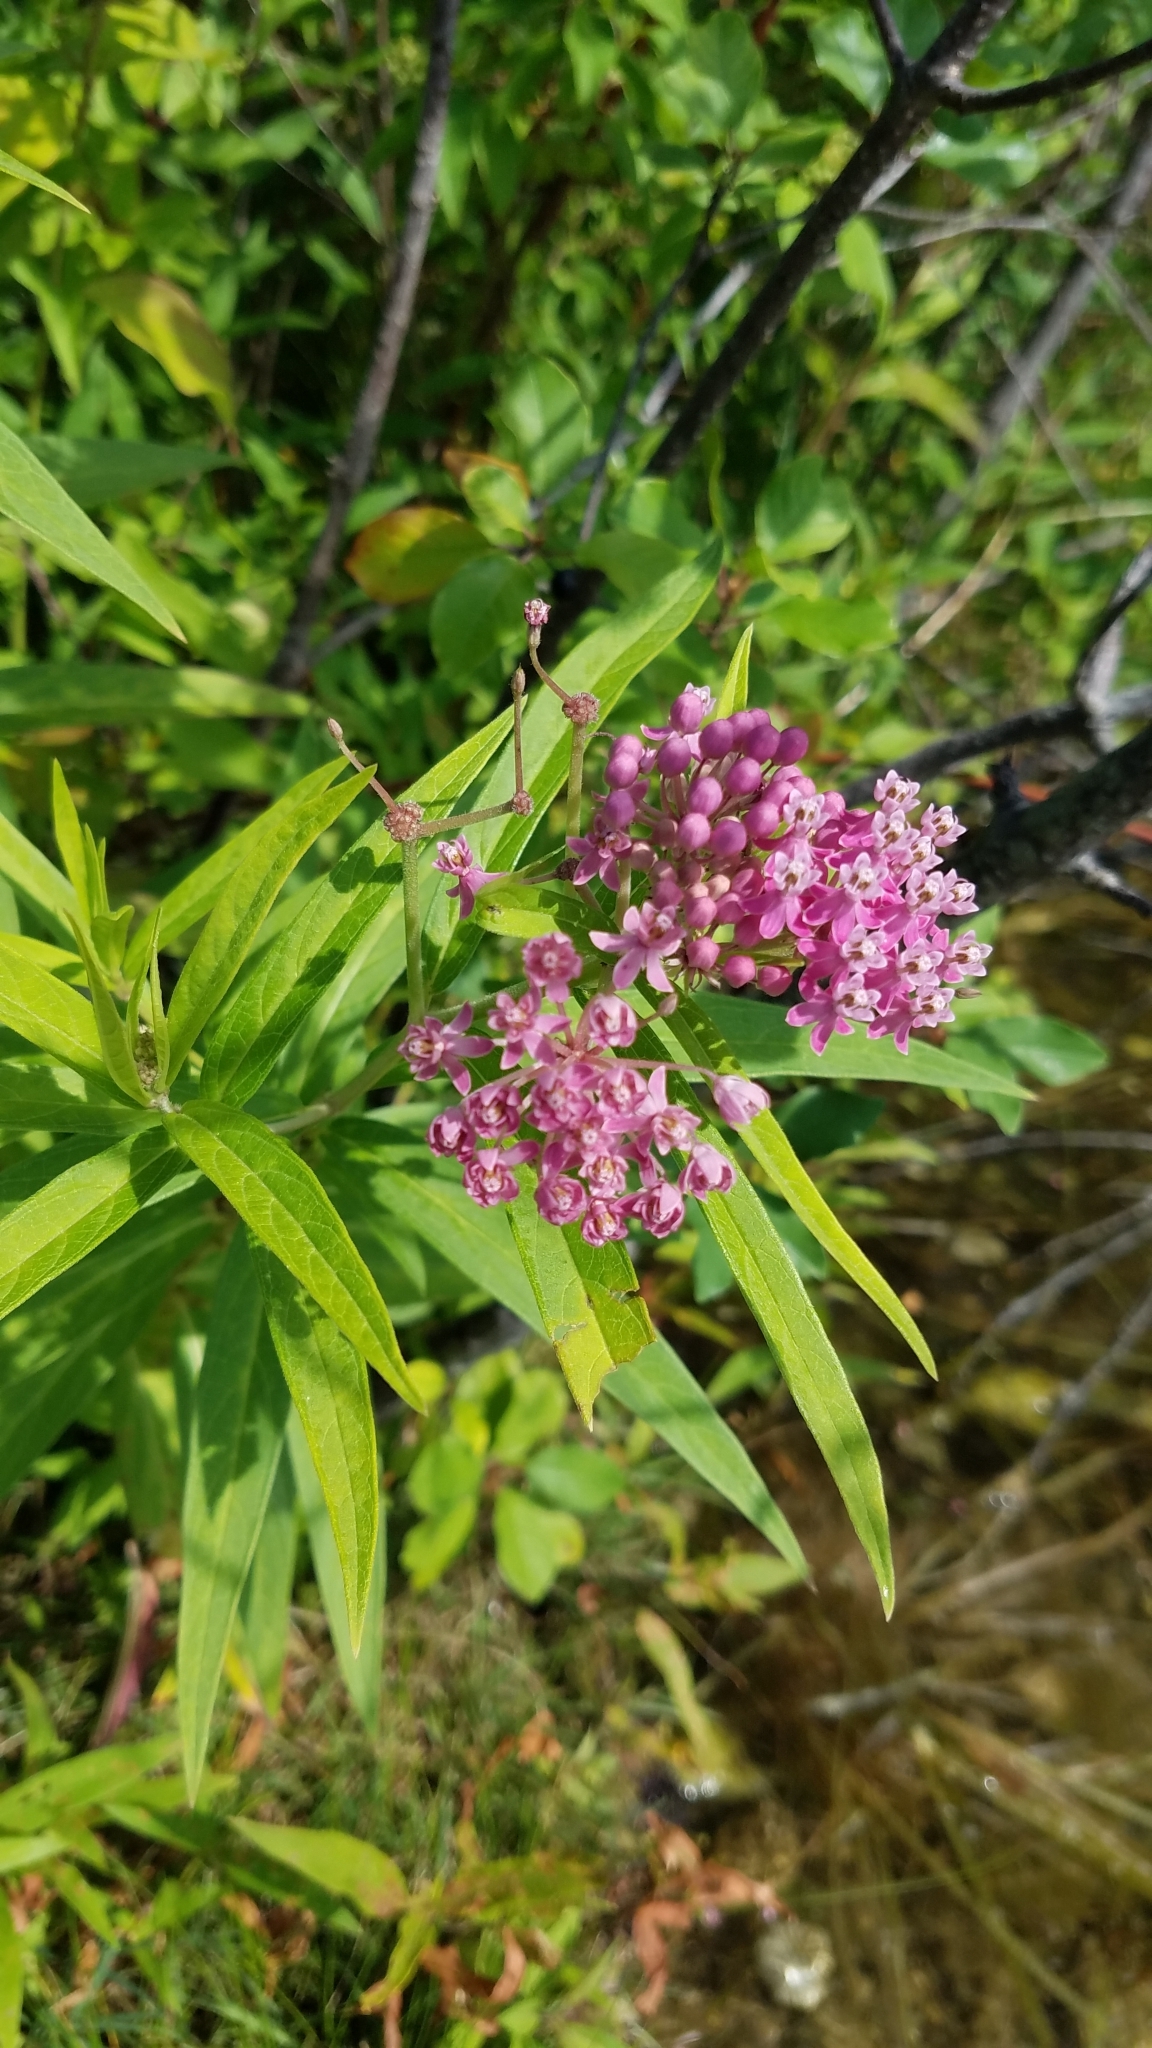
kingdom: Plantae
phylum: Tracheophyta
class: Magnoliopsida
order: Gentianales
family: Apocynaceae
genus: Asclepias
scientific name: Asclepias incarnata
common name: Swamp milkweed
